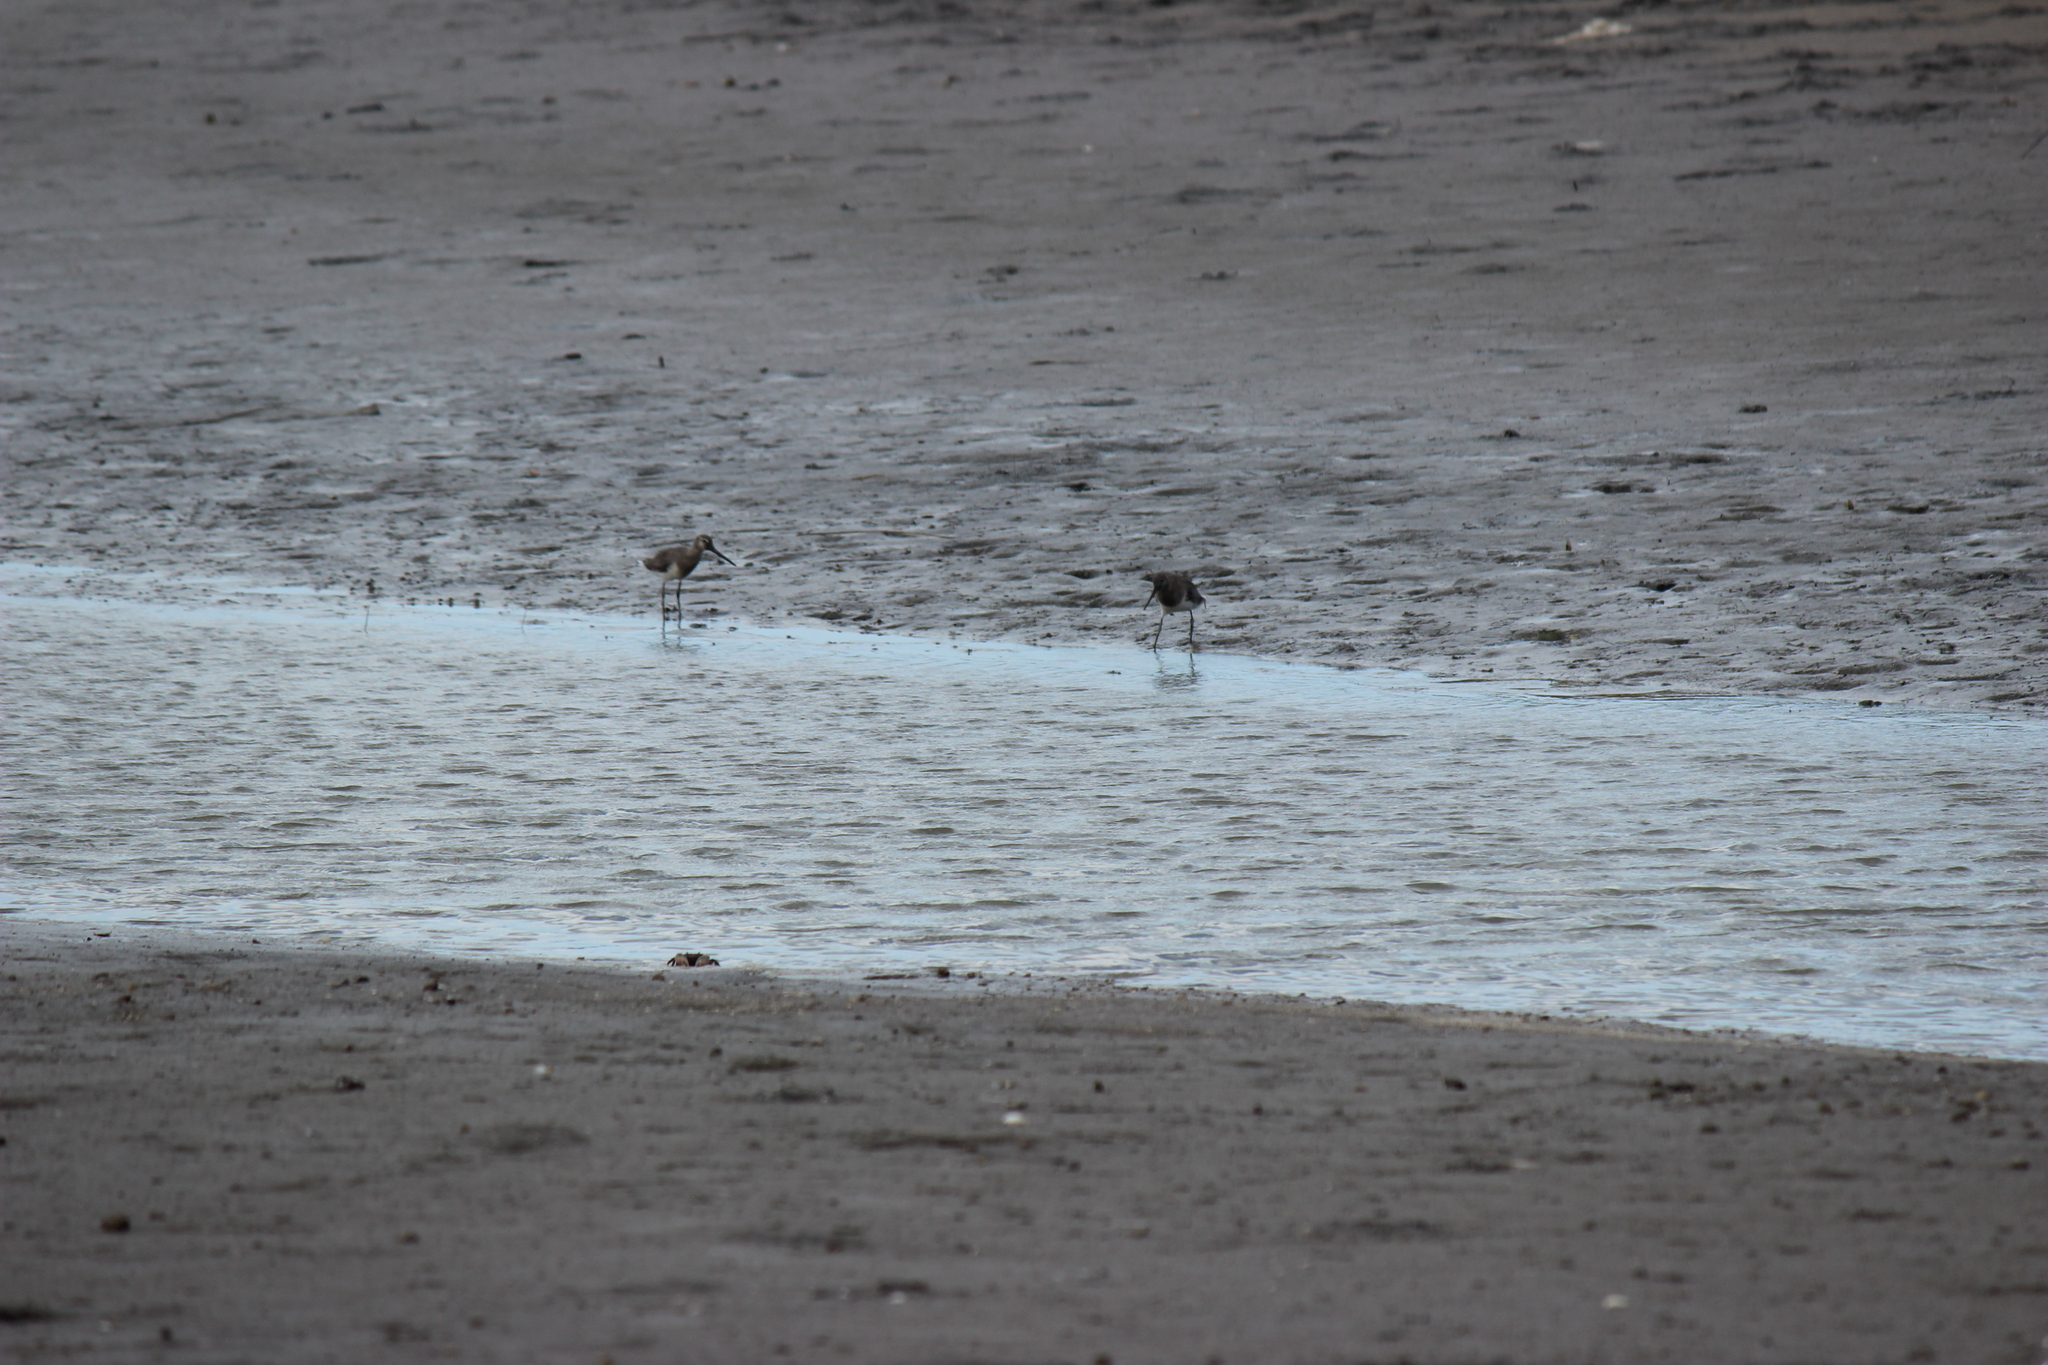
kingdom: Animalia
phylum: Chordata
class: Aves
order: Charadriiformes
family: Scolopacidae
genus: Limosa
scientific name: Limosa haemastica
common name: Hudsonian godwit
